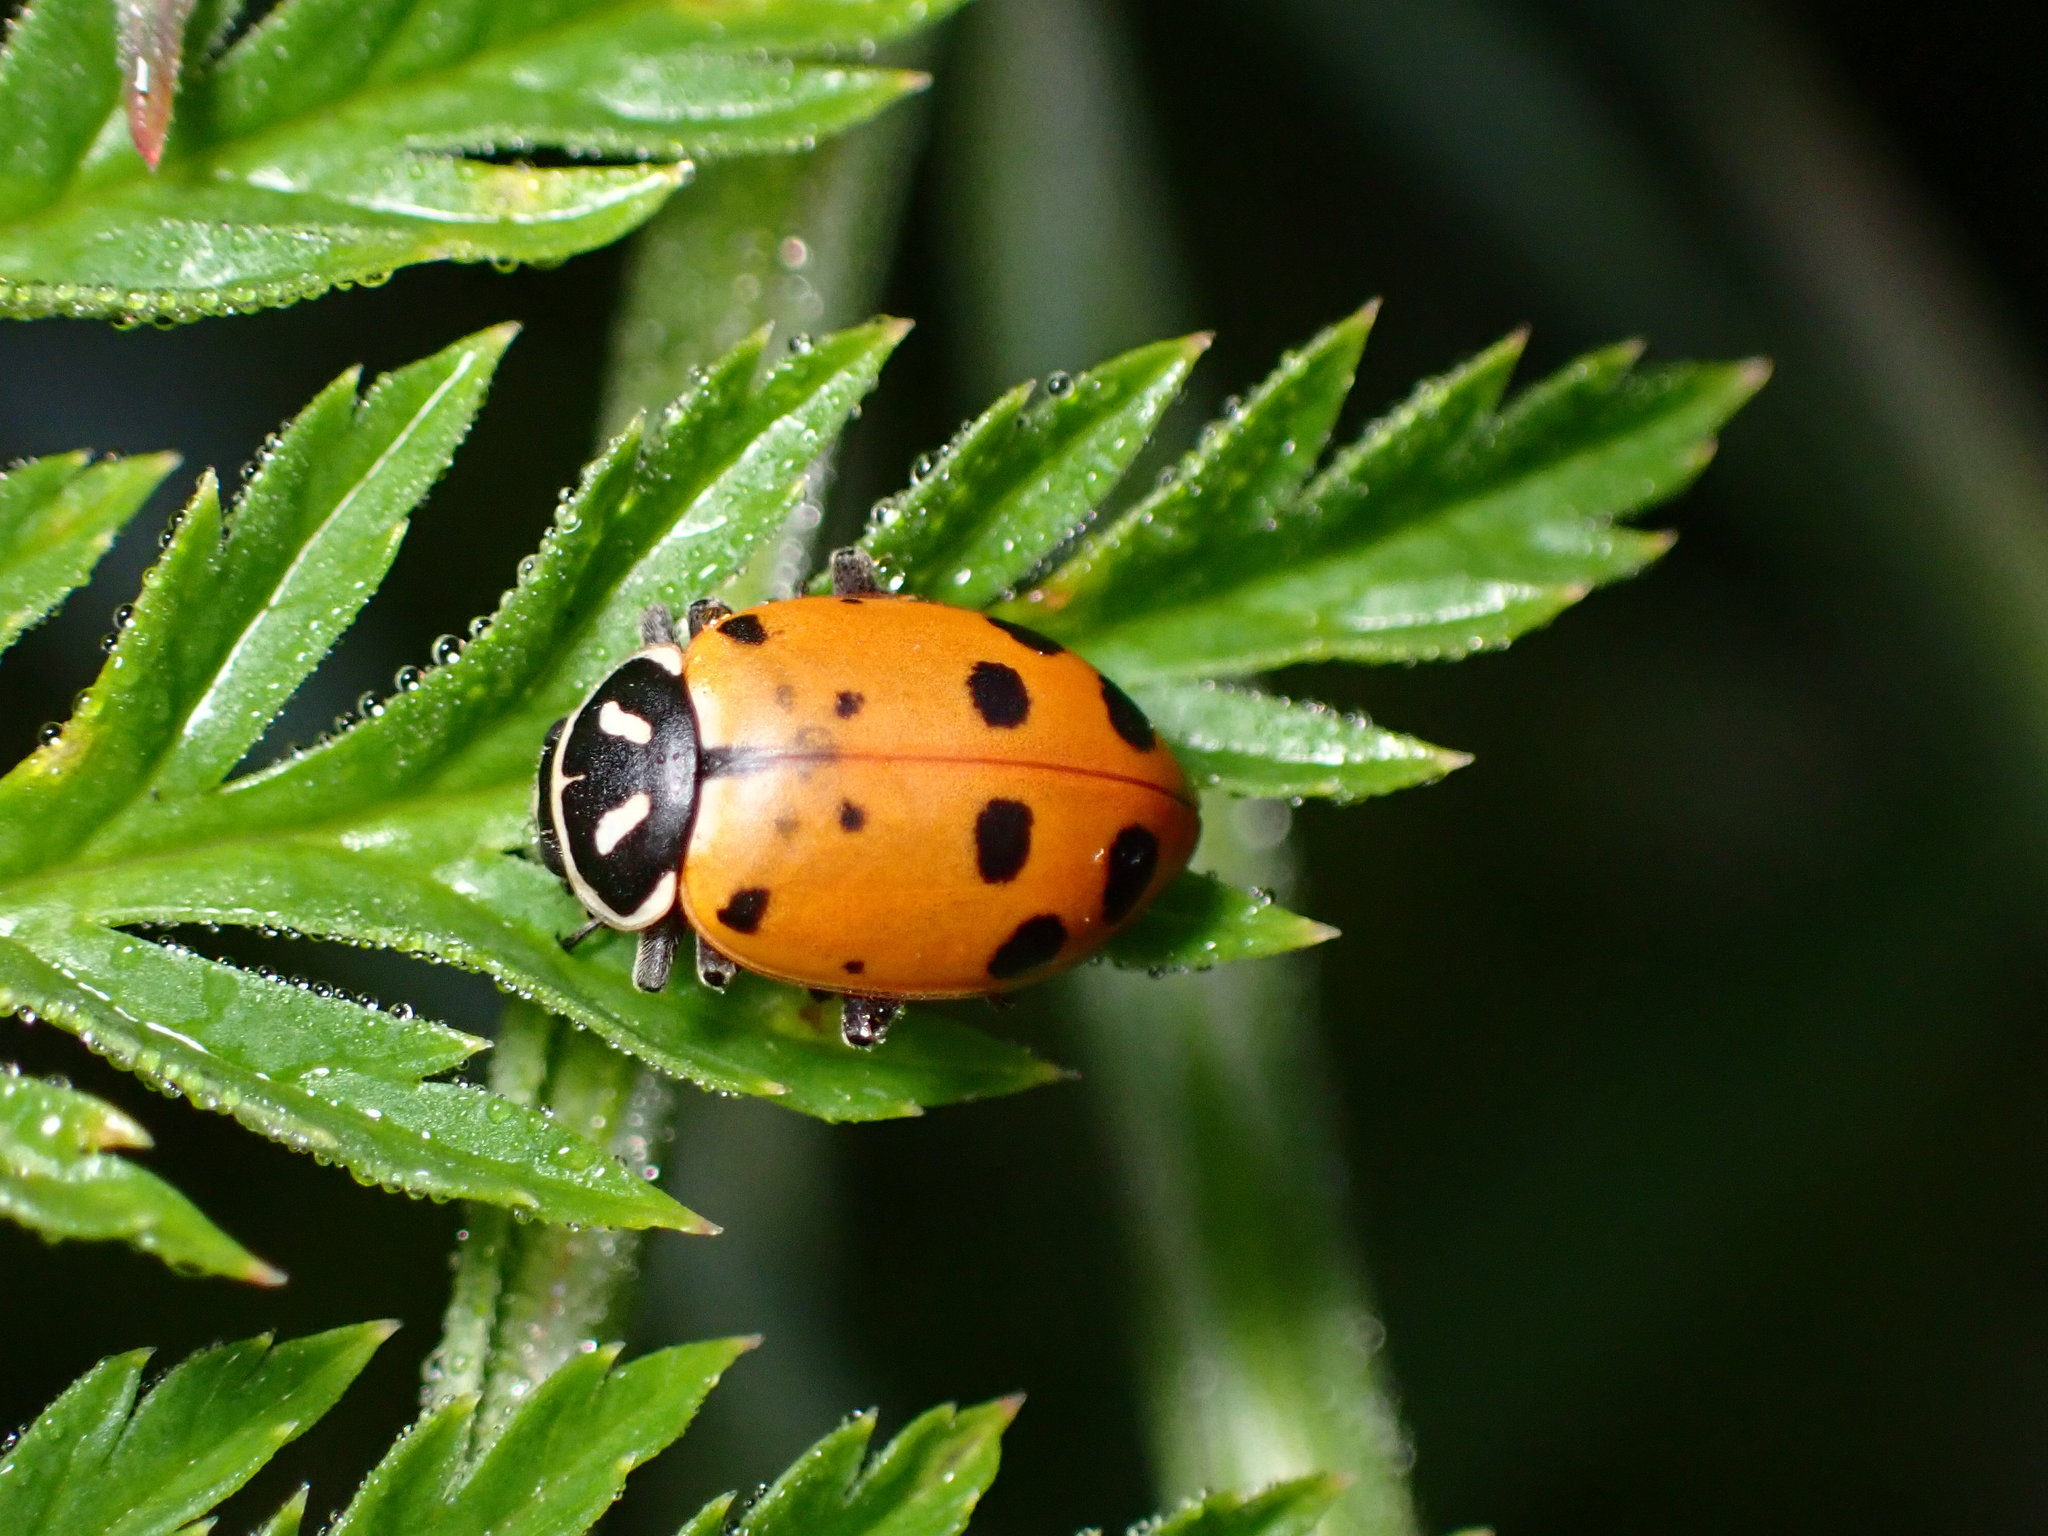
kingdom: Animalia
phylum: Arthropoda
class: Insecta
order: Coleoptera
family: Coccinellidae
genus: Hippodamia
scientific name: Hippodamia convergens
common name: Convergent lady beetle
